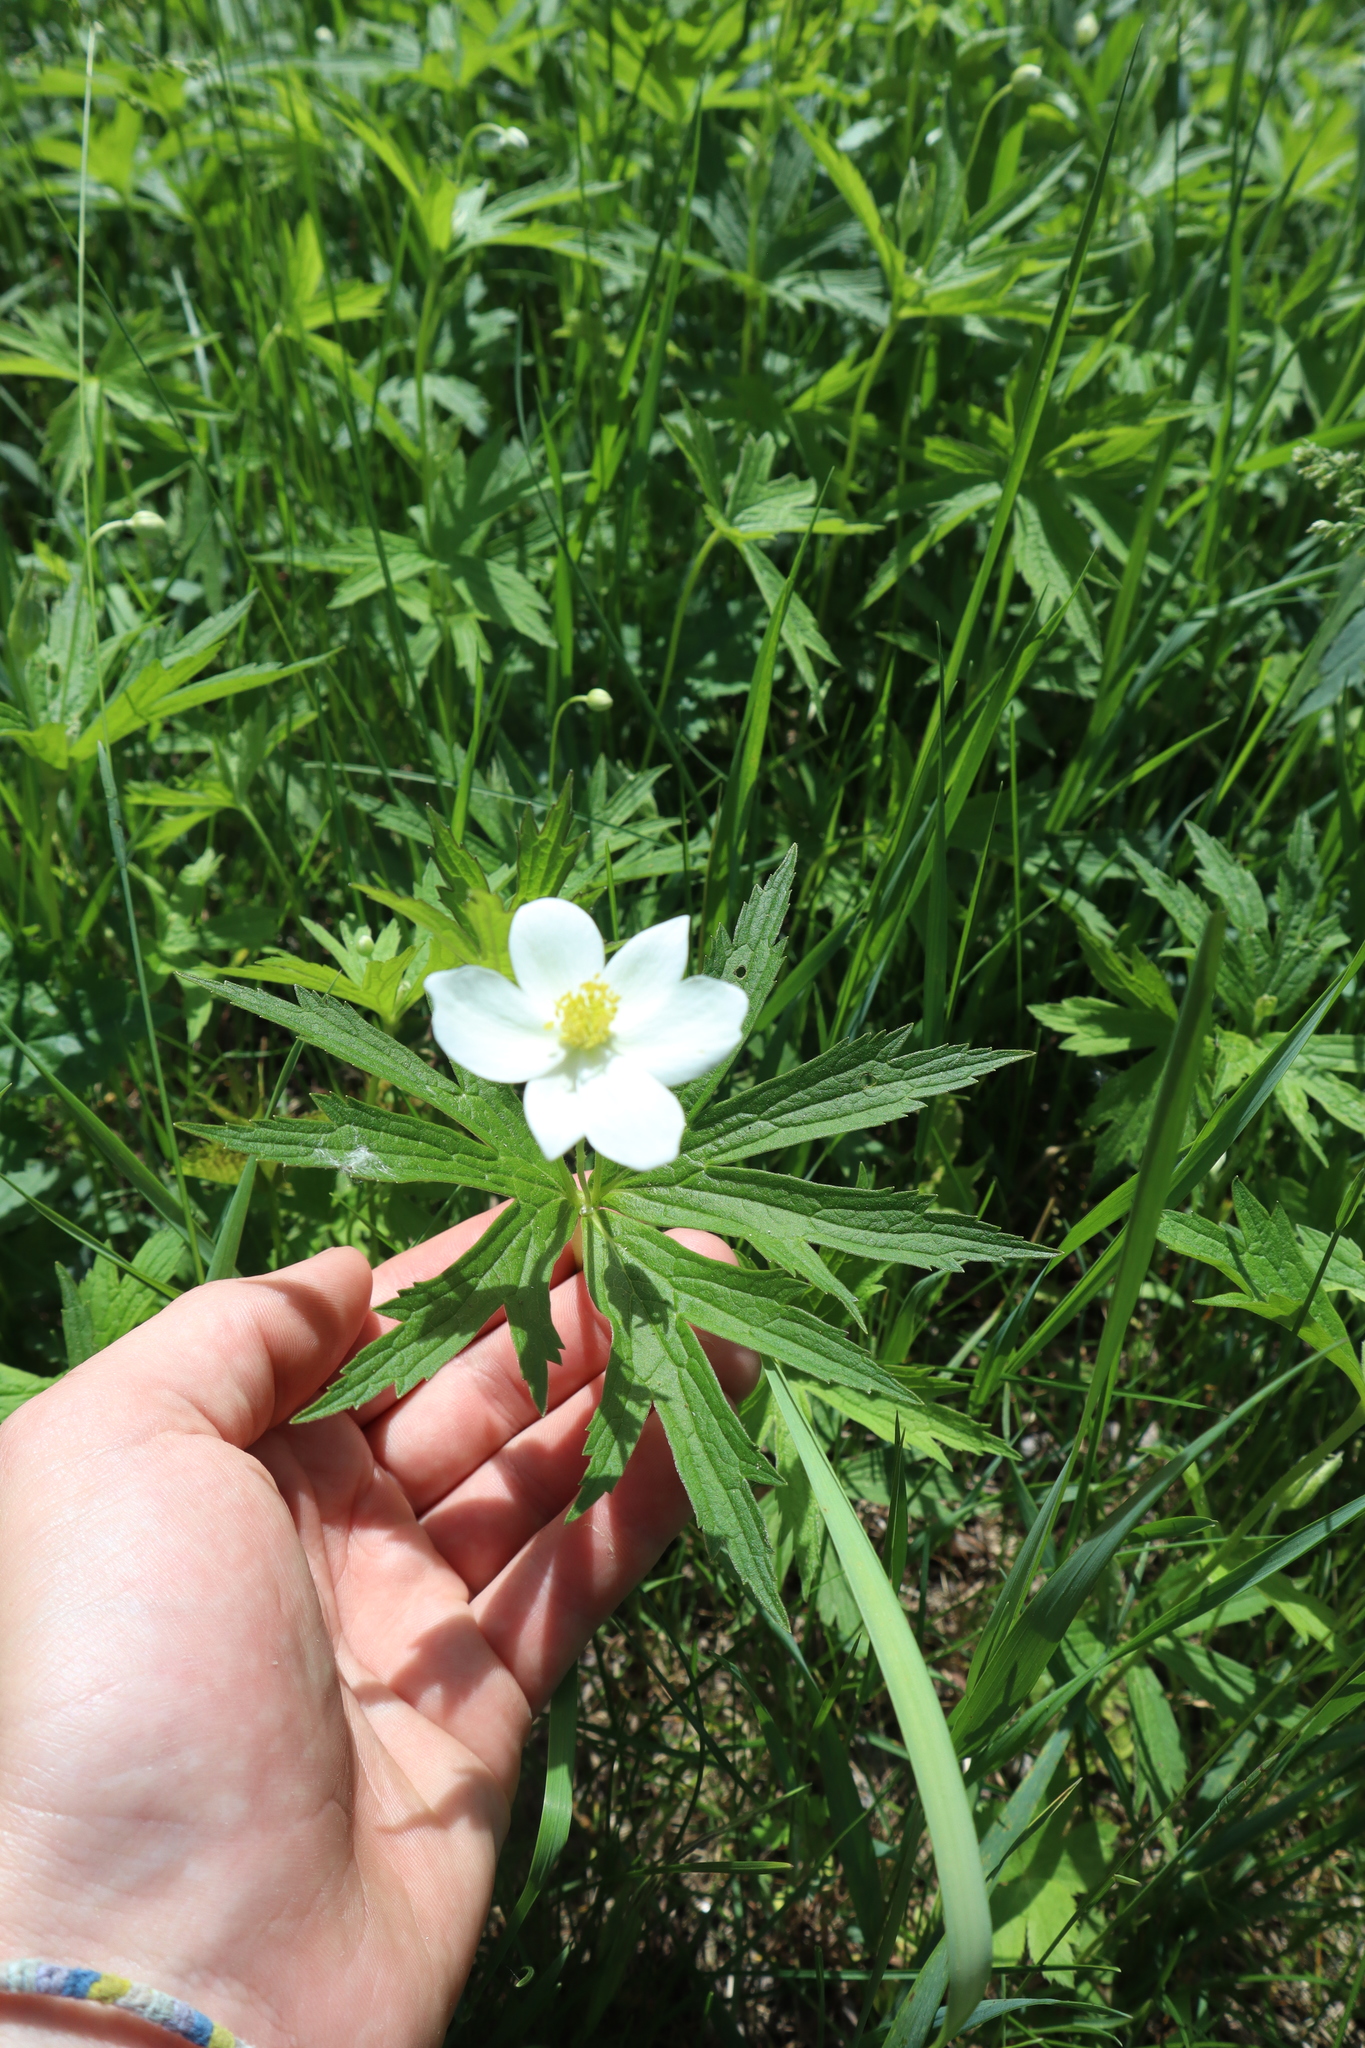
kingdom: Plantae
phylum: Tracheophyta
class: Magnoliopsida
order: Ranunculales
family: Ranunculaceae
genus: Anemonastrum
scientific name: Anemonastrum canadense
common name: Canada anemone
